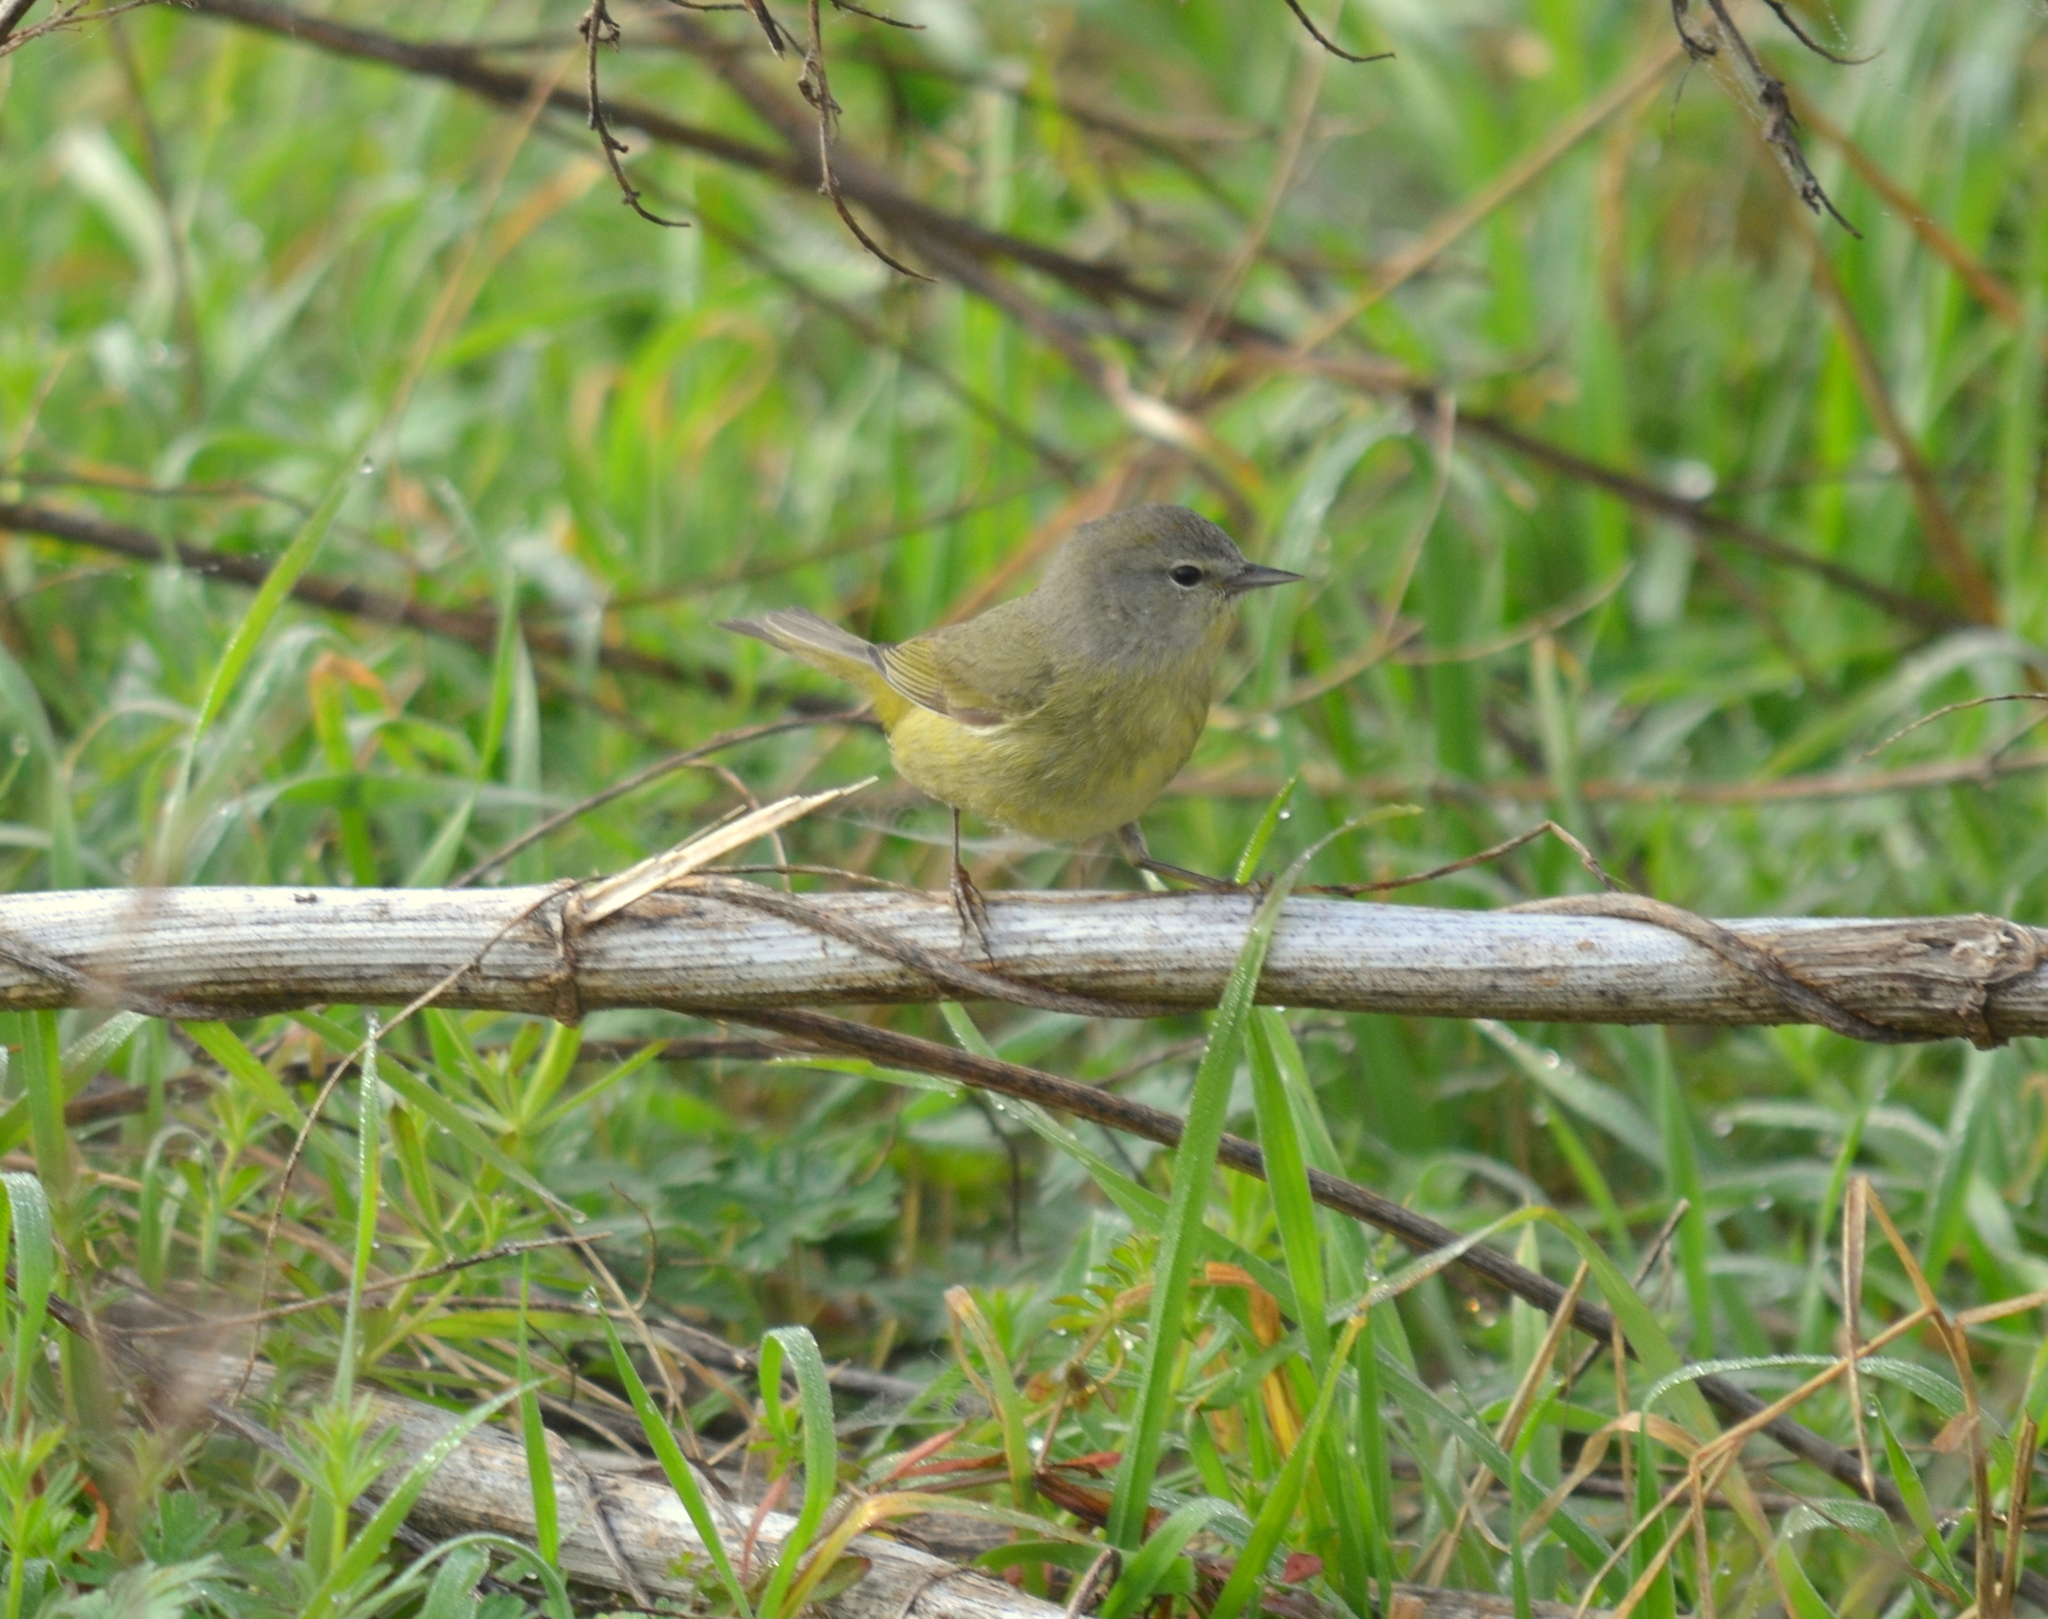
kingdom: Animalia
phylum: Chordata
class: Aves
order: Passeriformes
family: Parulidae
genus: Leiothlypis
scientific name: Leiothlypis celata
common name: Orange-crowned warbler
